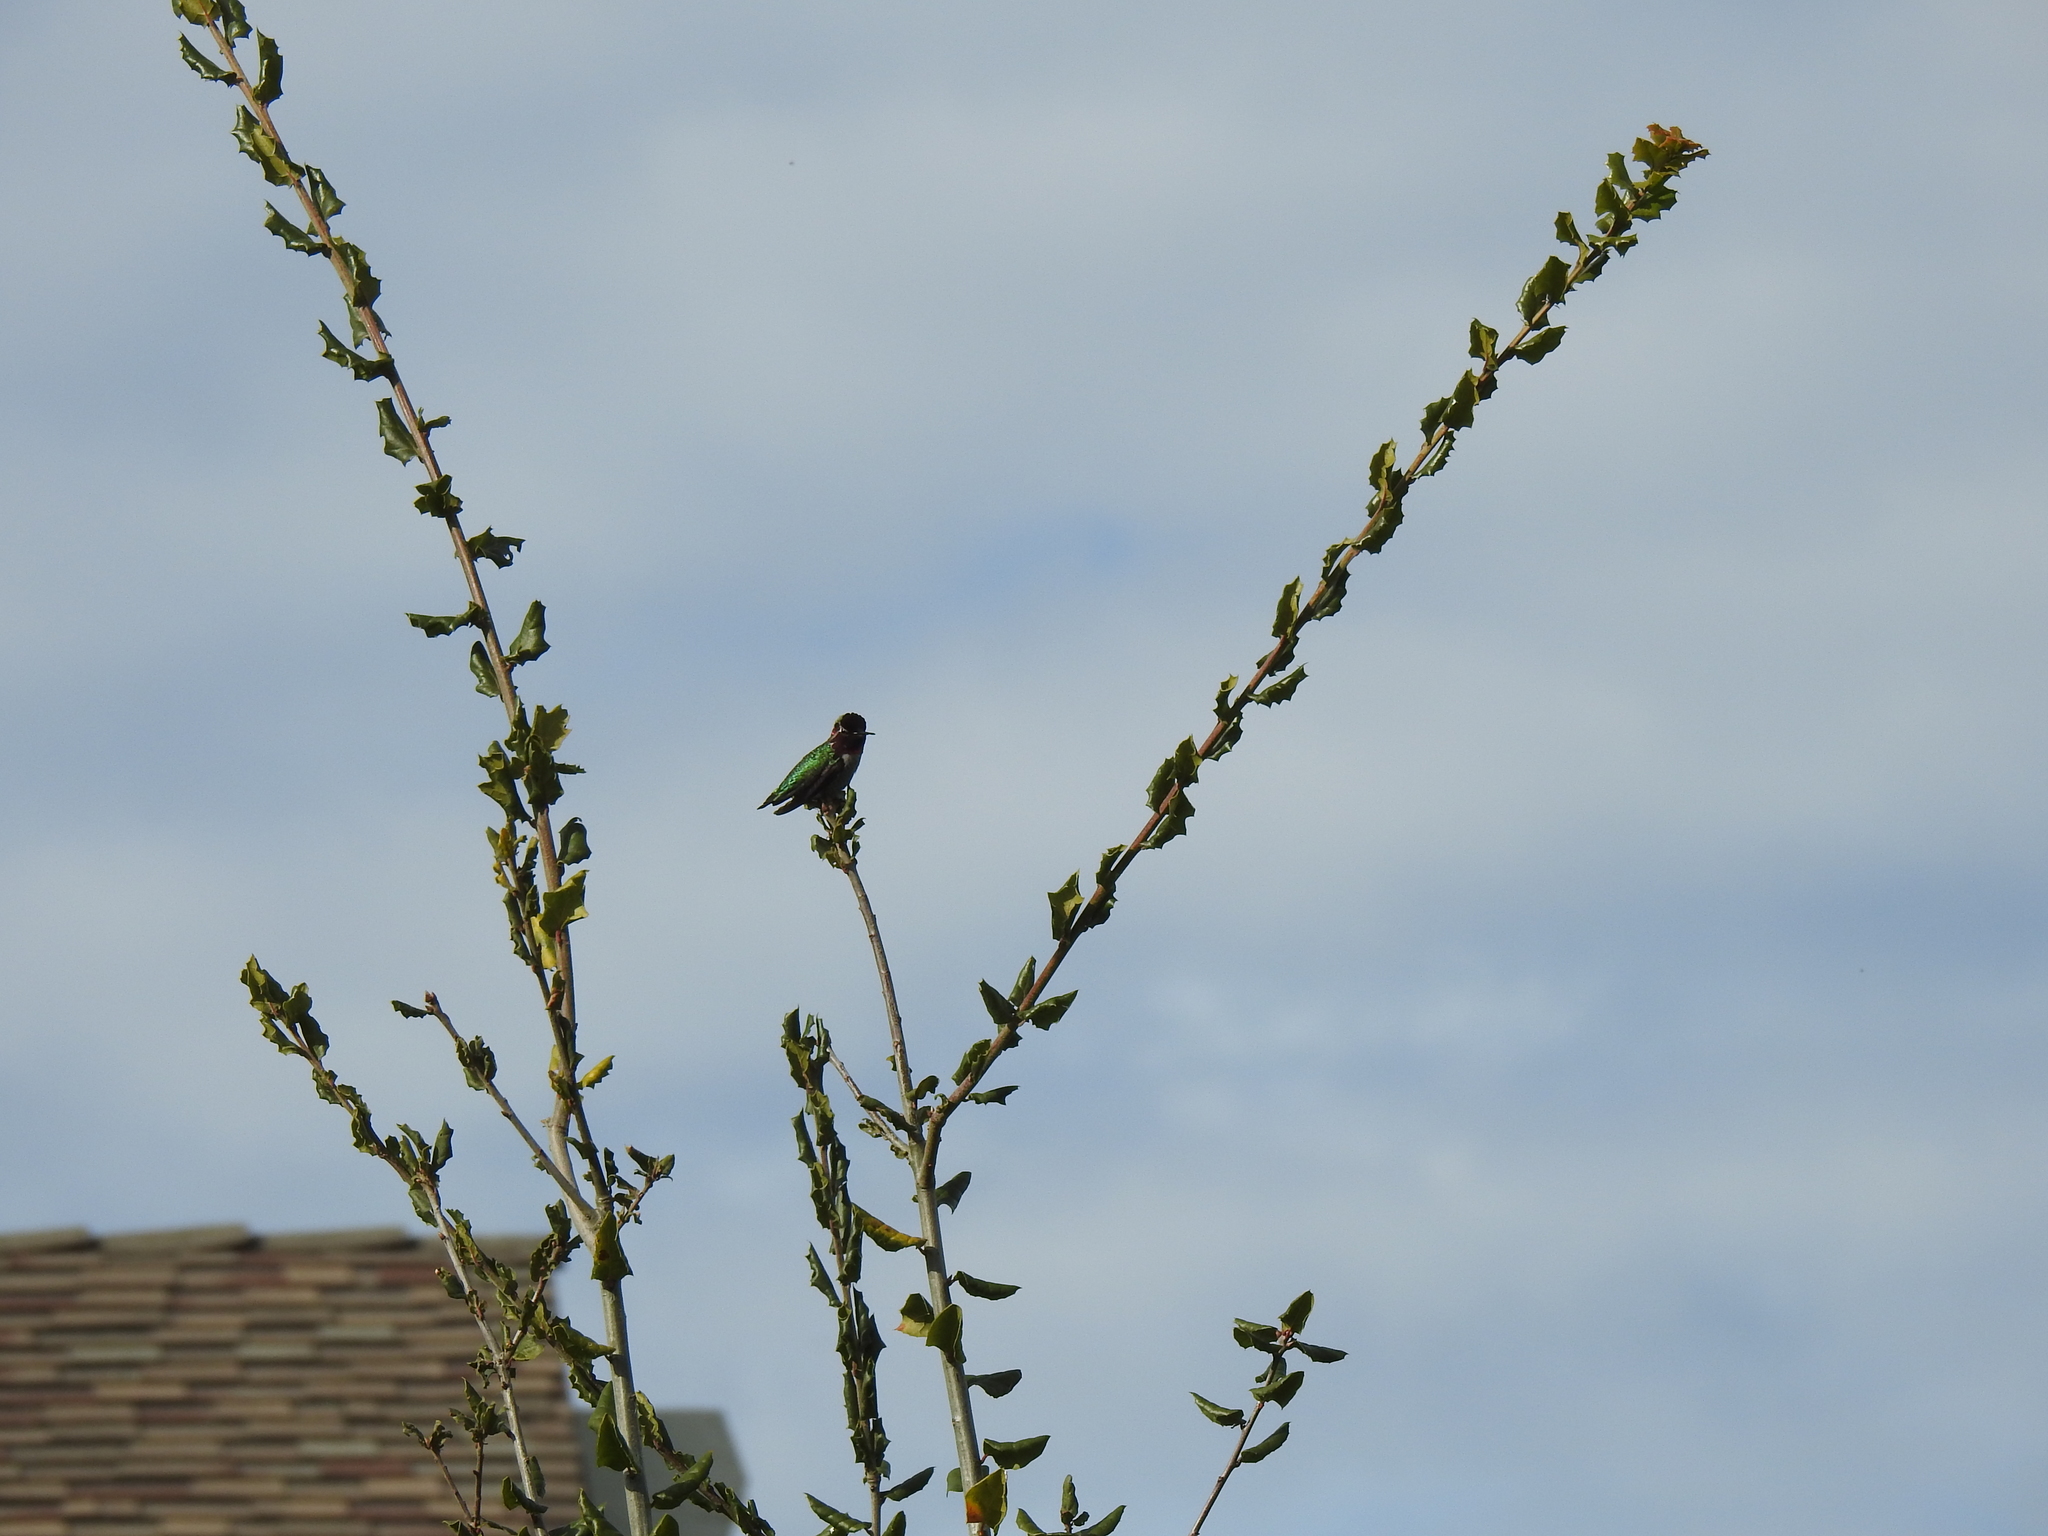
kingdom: Animalia
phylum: Chordata
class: Aves
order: Apodiformes
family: Trochilidae
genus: Calypte
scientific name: Calypte anna
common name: Anna's hummingbird
